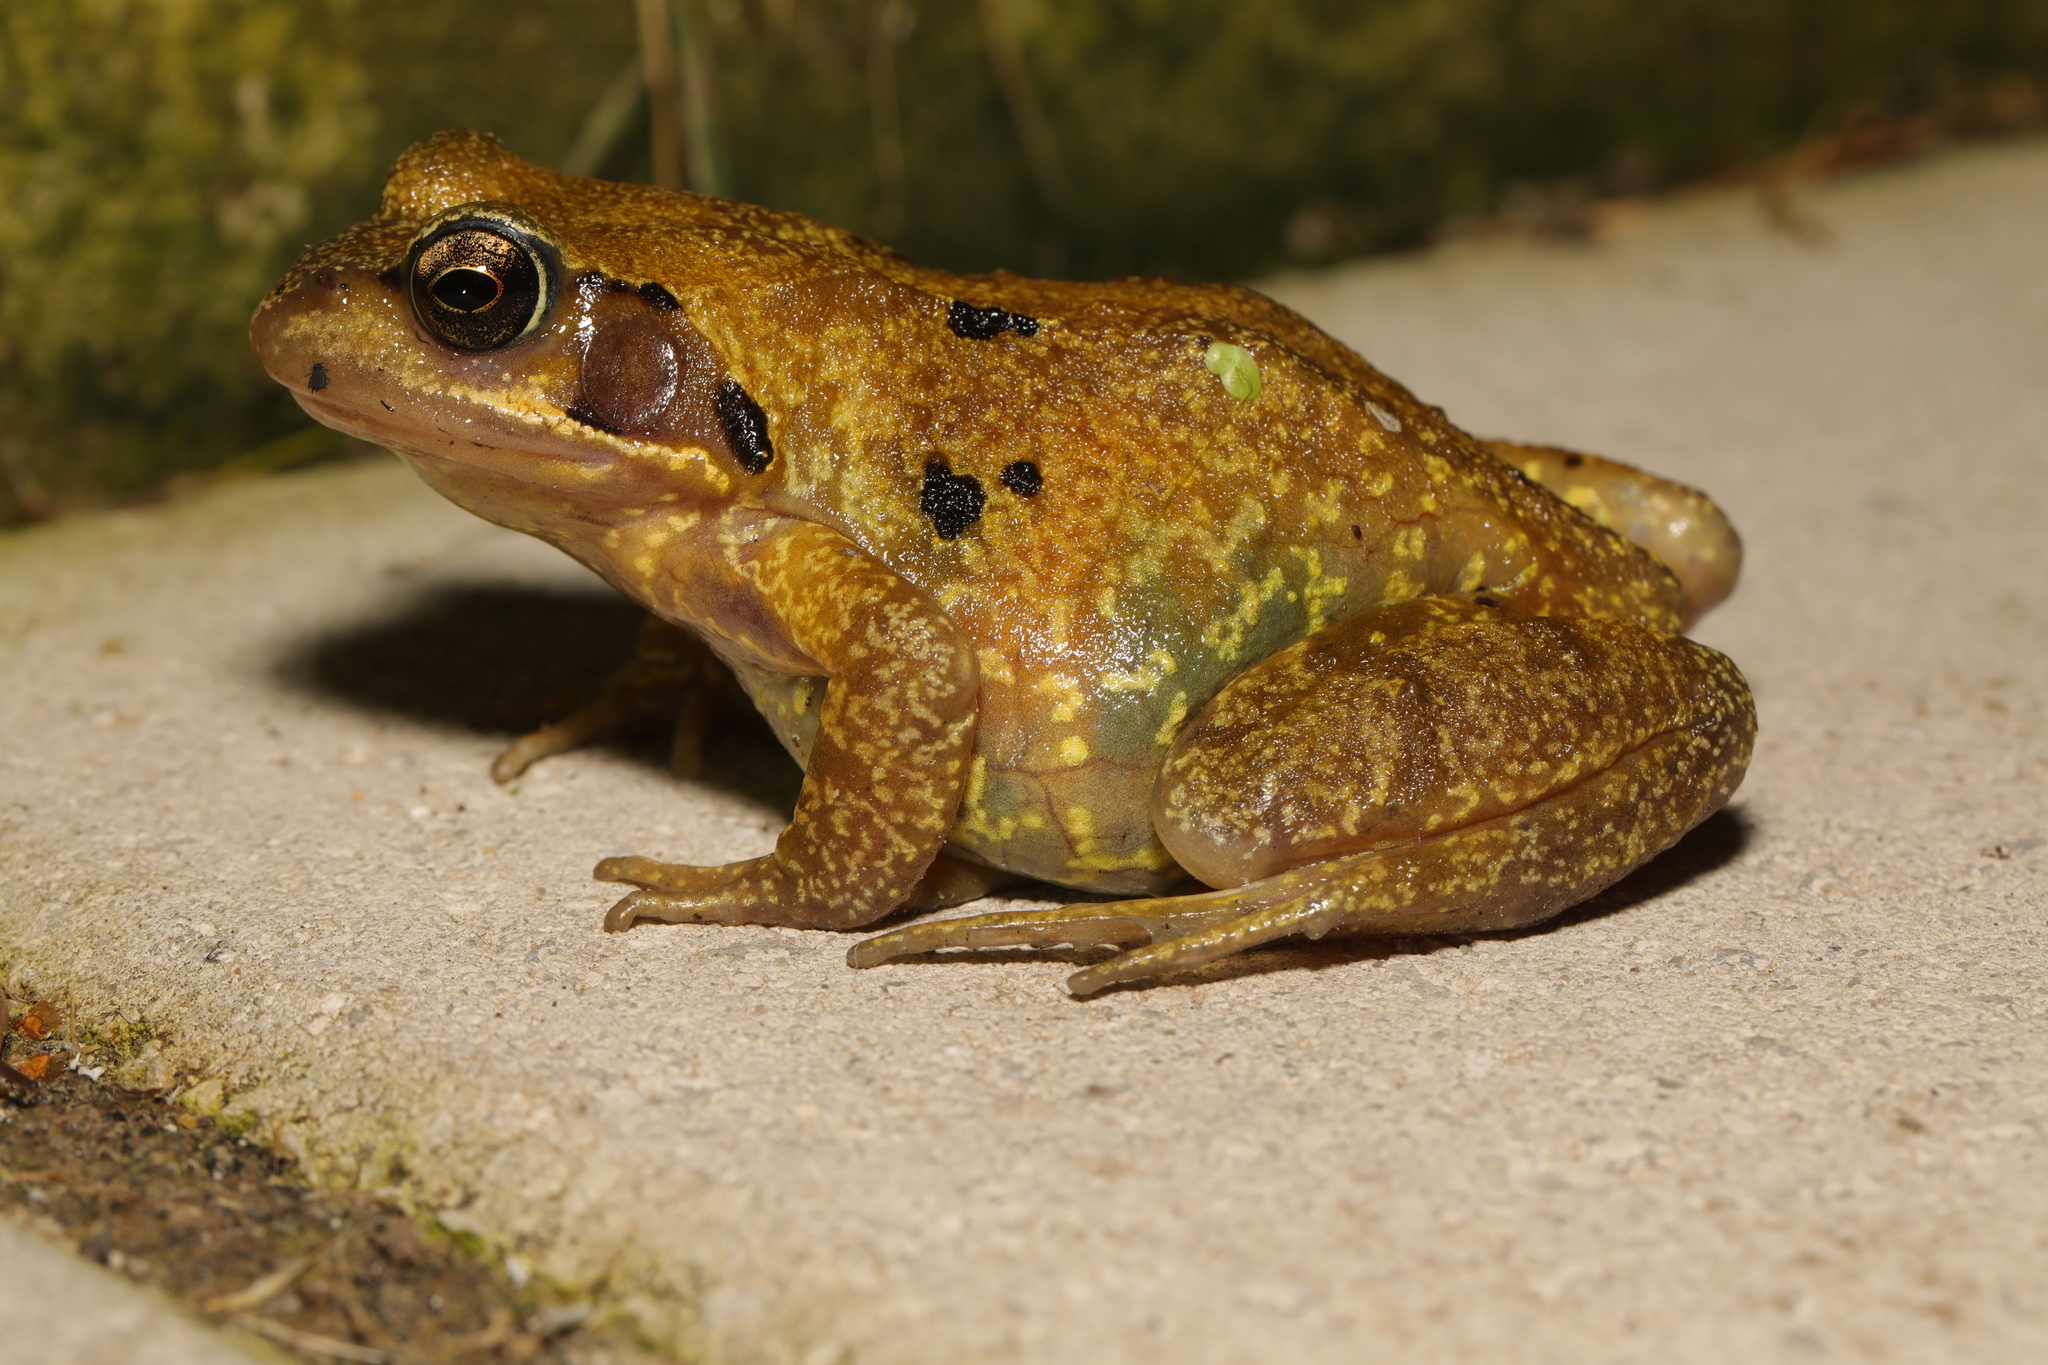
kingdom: Animalia
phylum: Chordata
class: Amphibia
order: Anura
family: Ranidae
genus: Rana
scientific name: Rana temporaria
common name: Common frog
